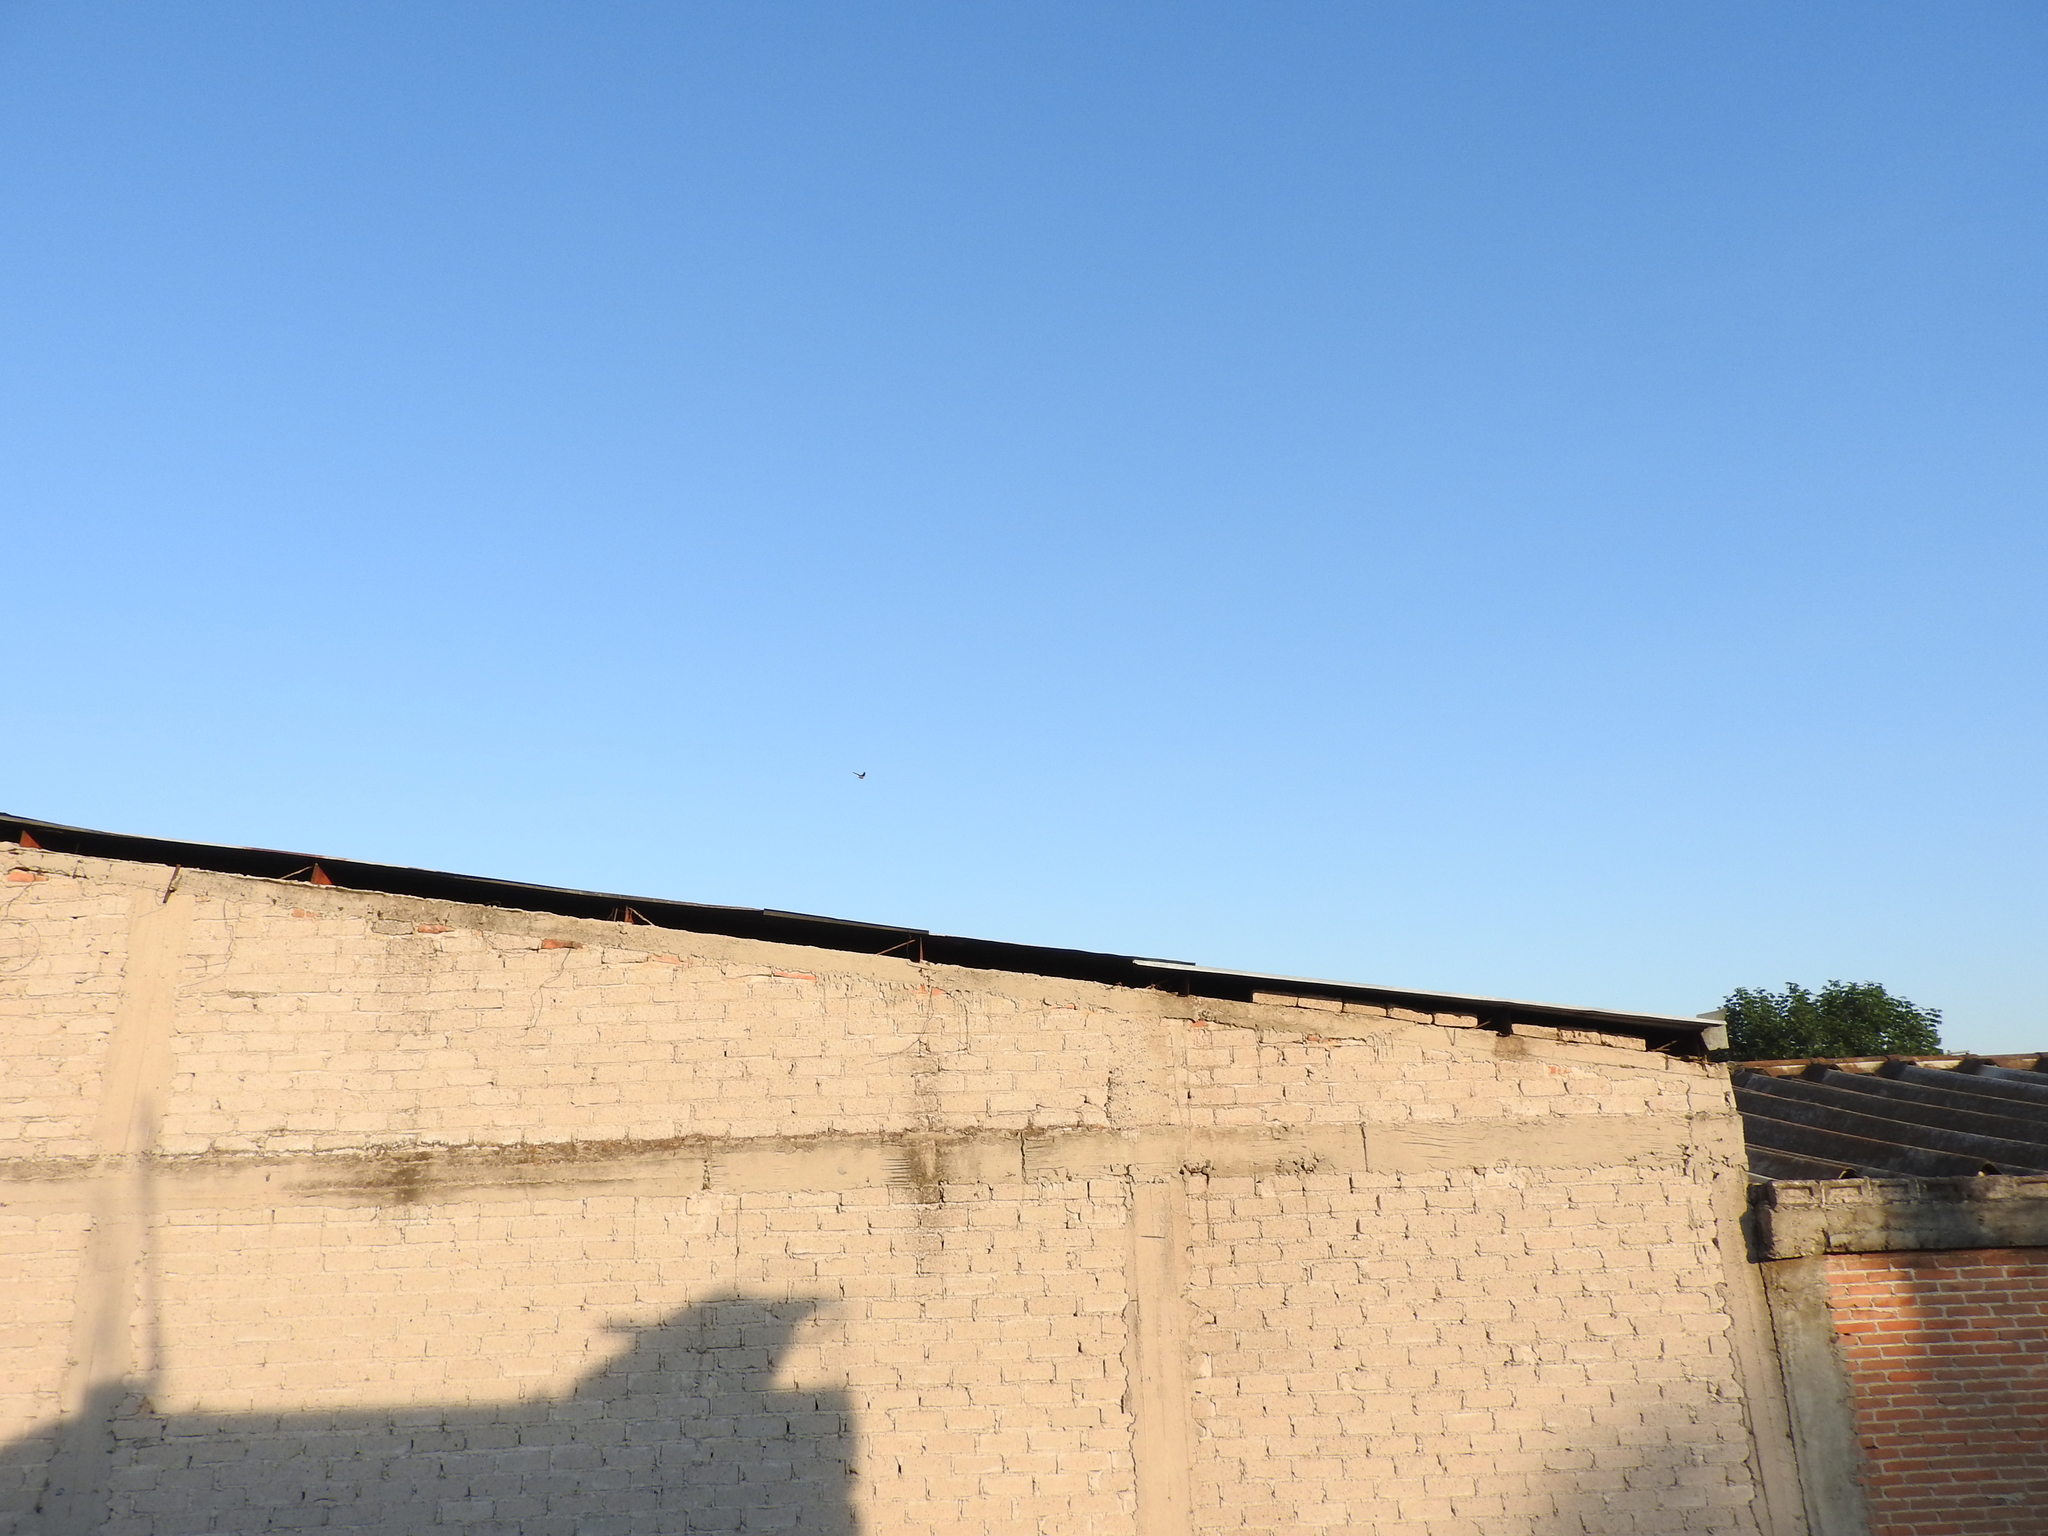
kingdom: Animalia
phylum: Chordata
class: Aves
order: Passeriformes
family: Hirundinidae
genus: Hirundo
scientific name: Hirundo rustica
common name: Barn swallow
